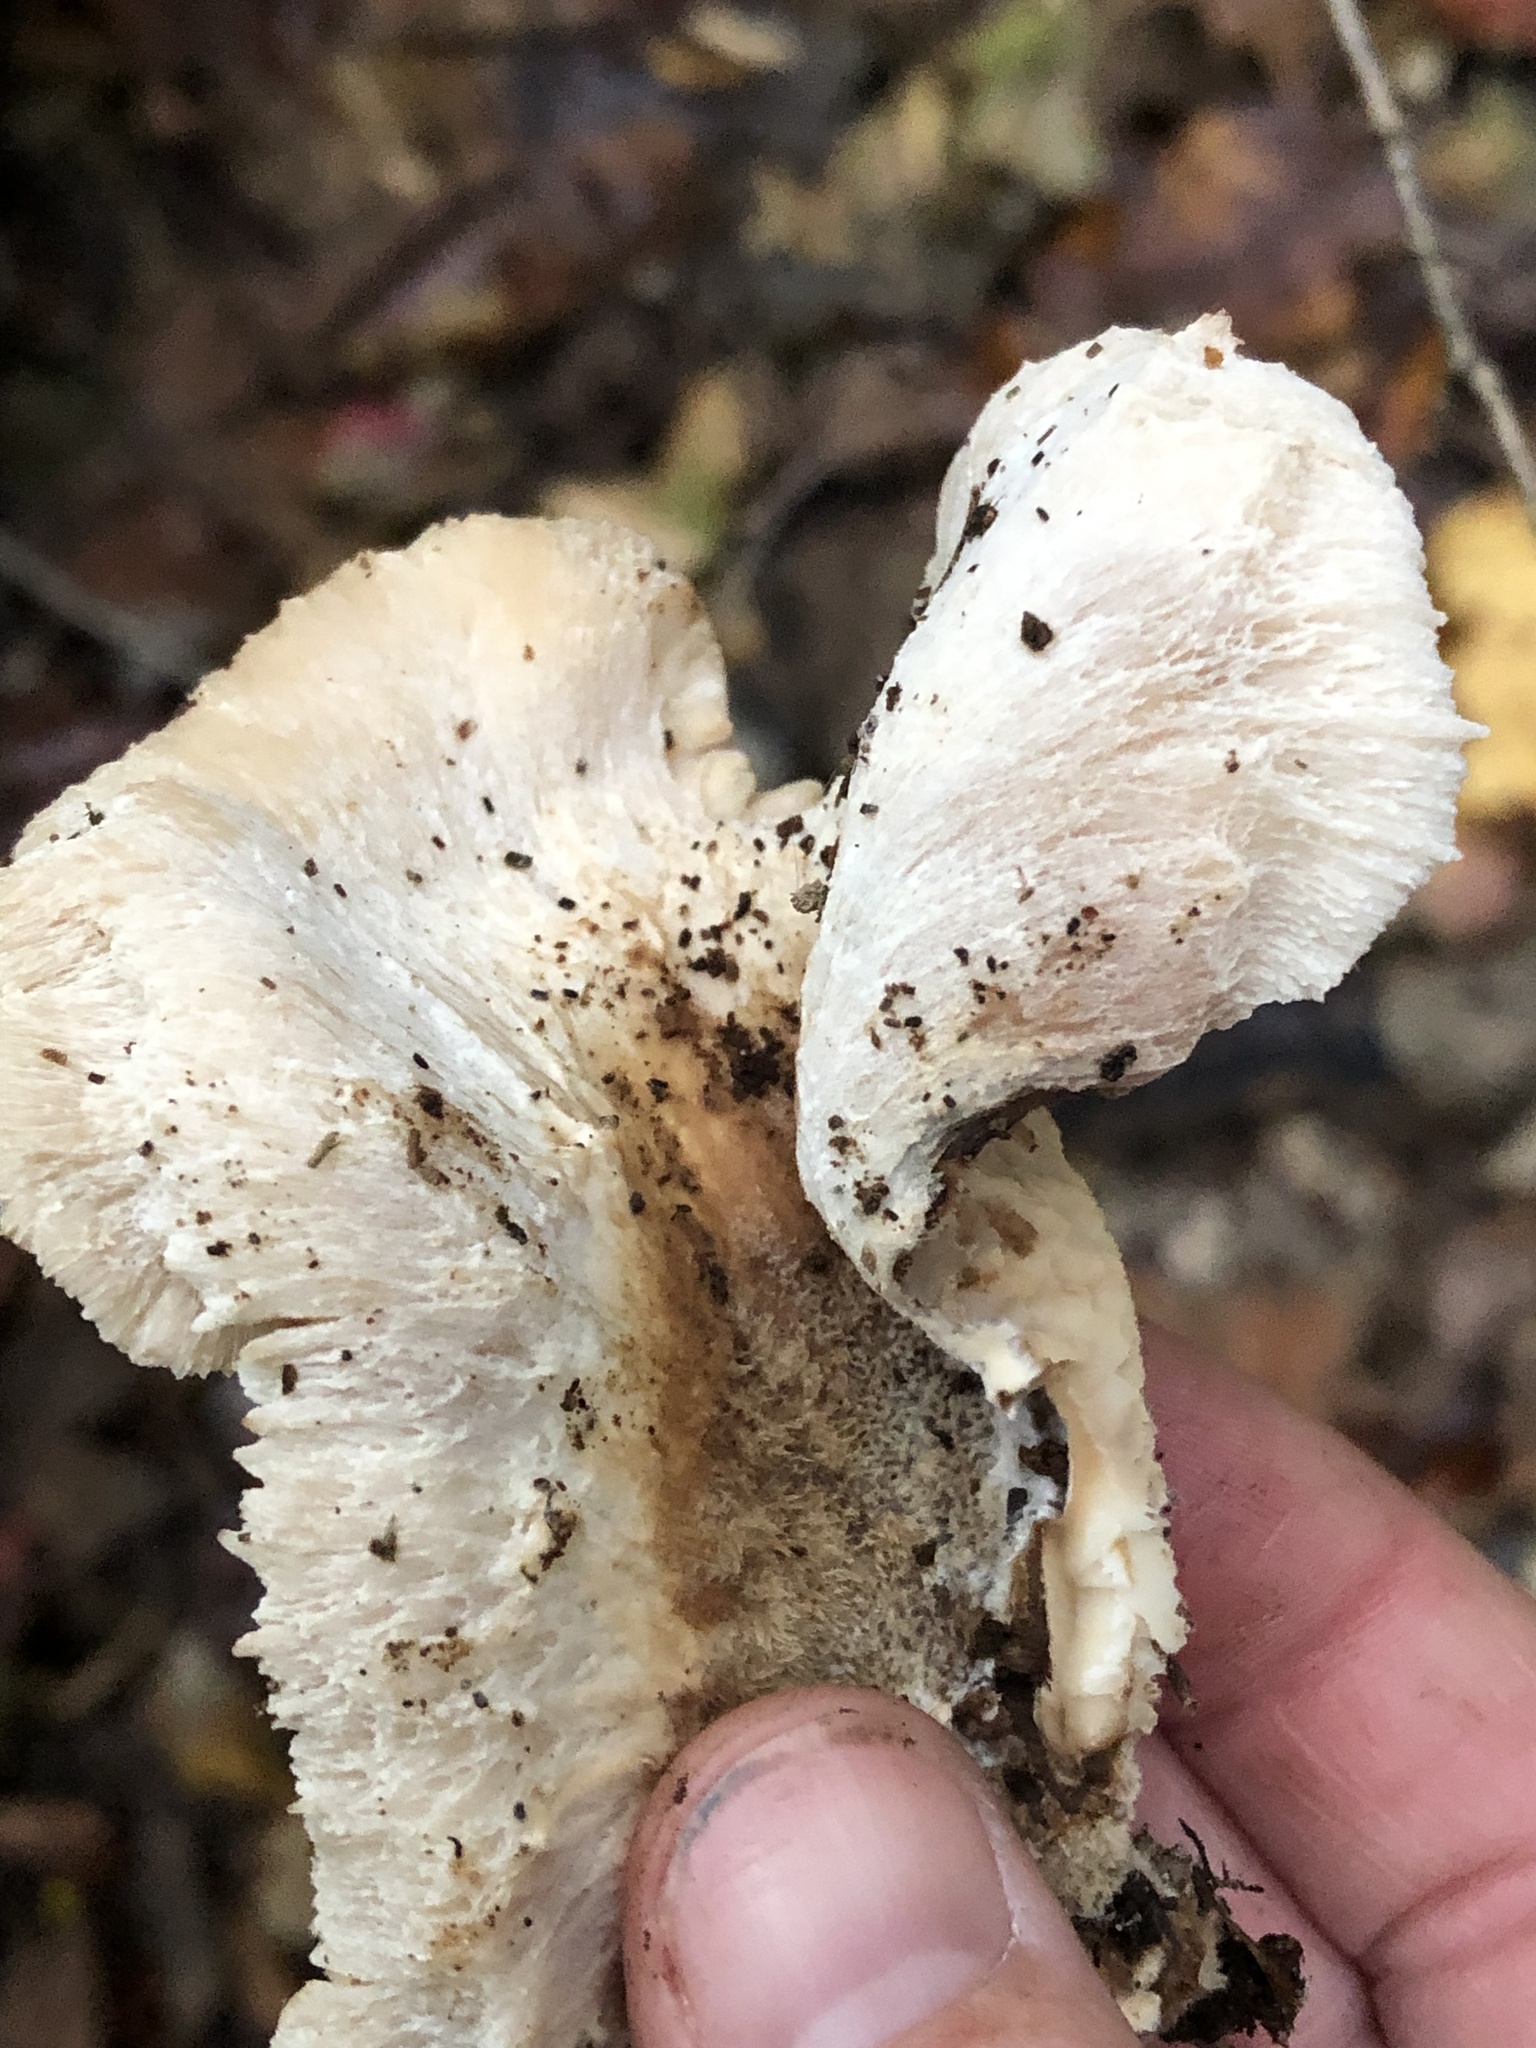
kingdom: Fungi
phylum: Basidiomycota
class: Agaricomycetes
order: Russulales
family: Auriscalpiaceae
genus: Lentinellus
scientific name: Lentinellus ursinus
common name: Bear lentinus
